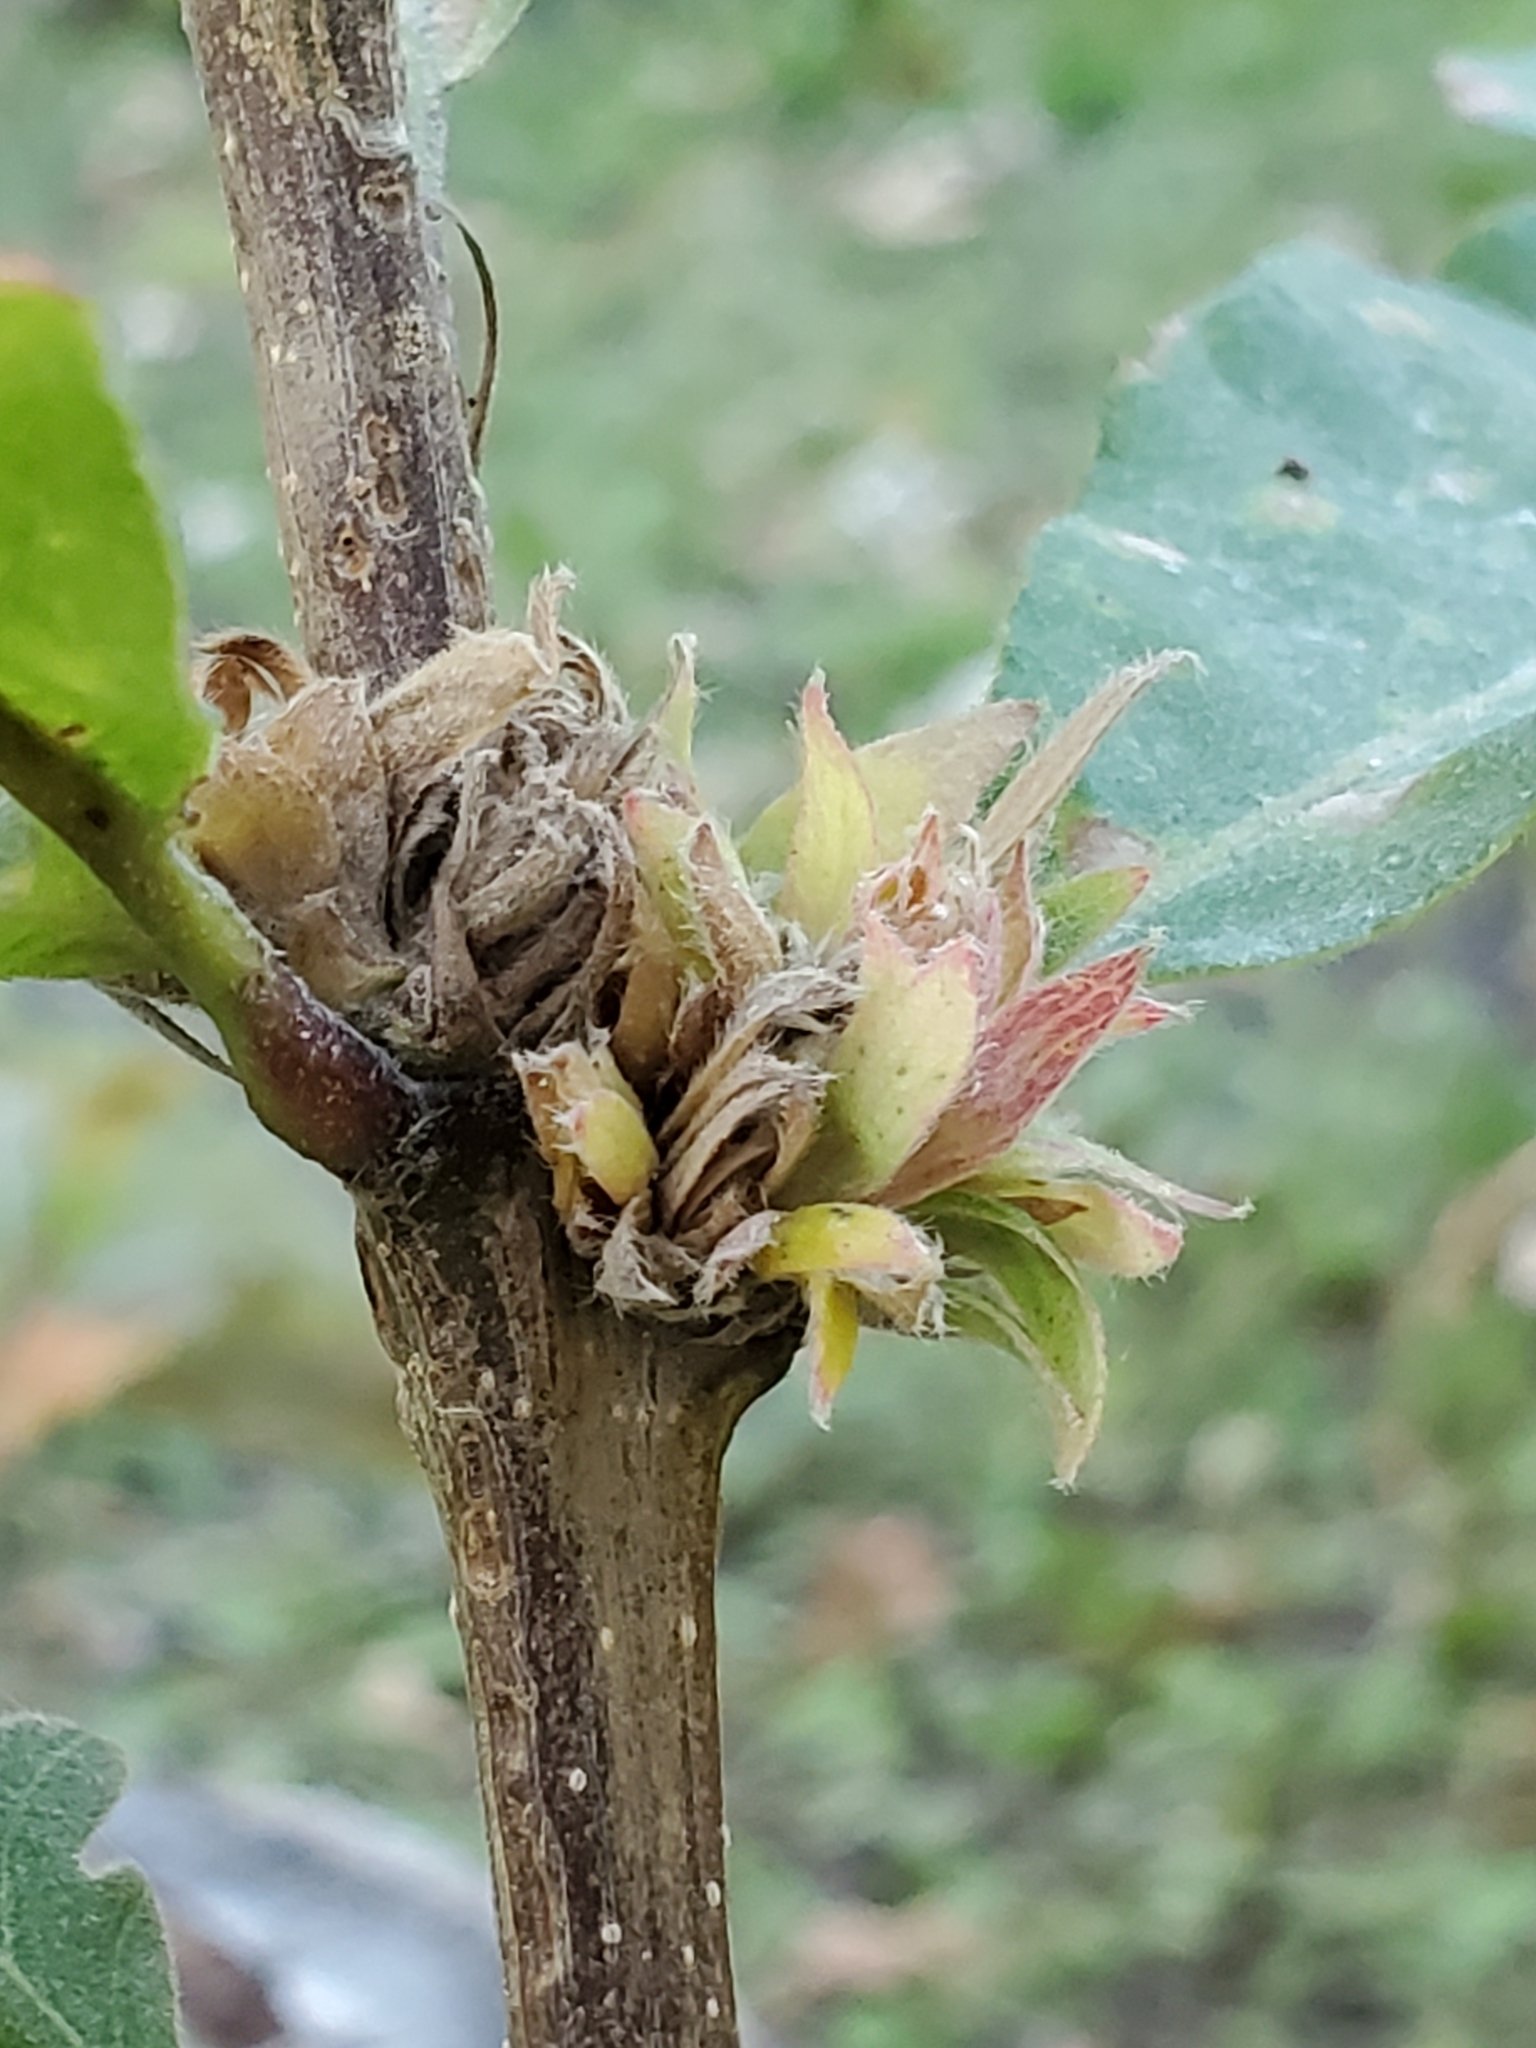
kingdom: Animalia
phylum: Arthropoda
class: Insecta
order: Hymenoptera
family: Cynipidae
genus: Andricus
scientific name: Andricus
